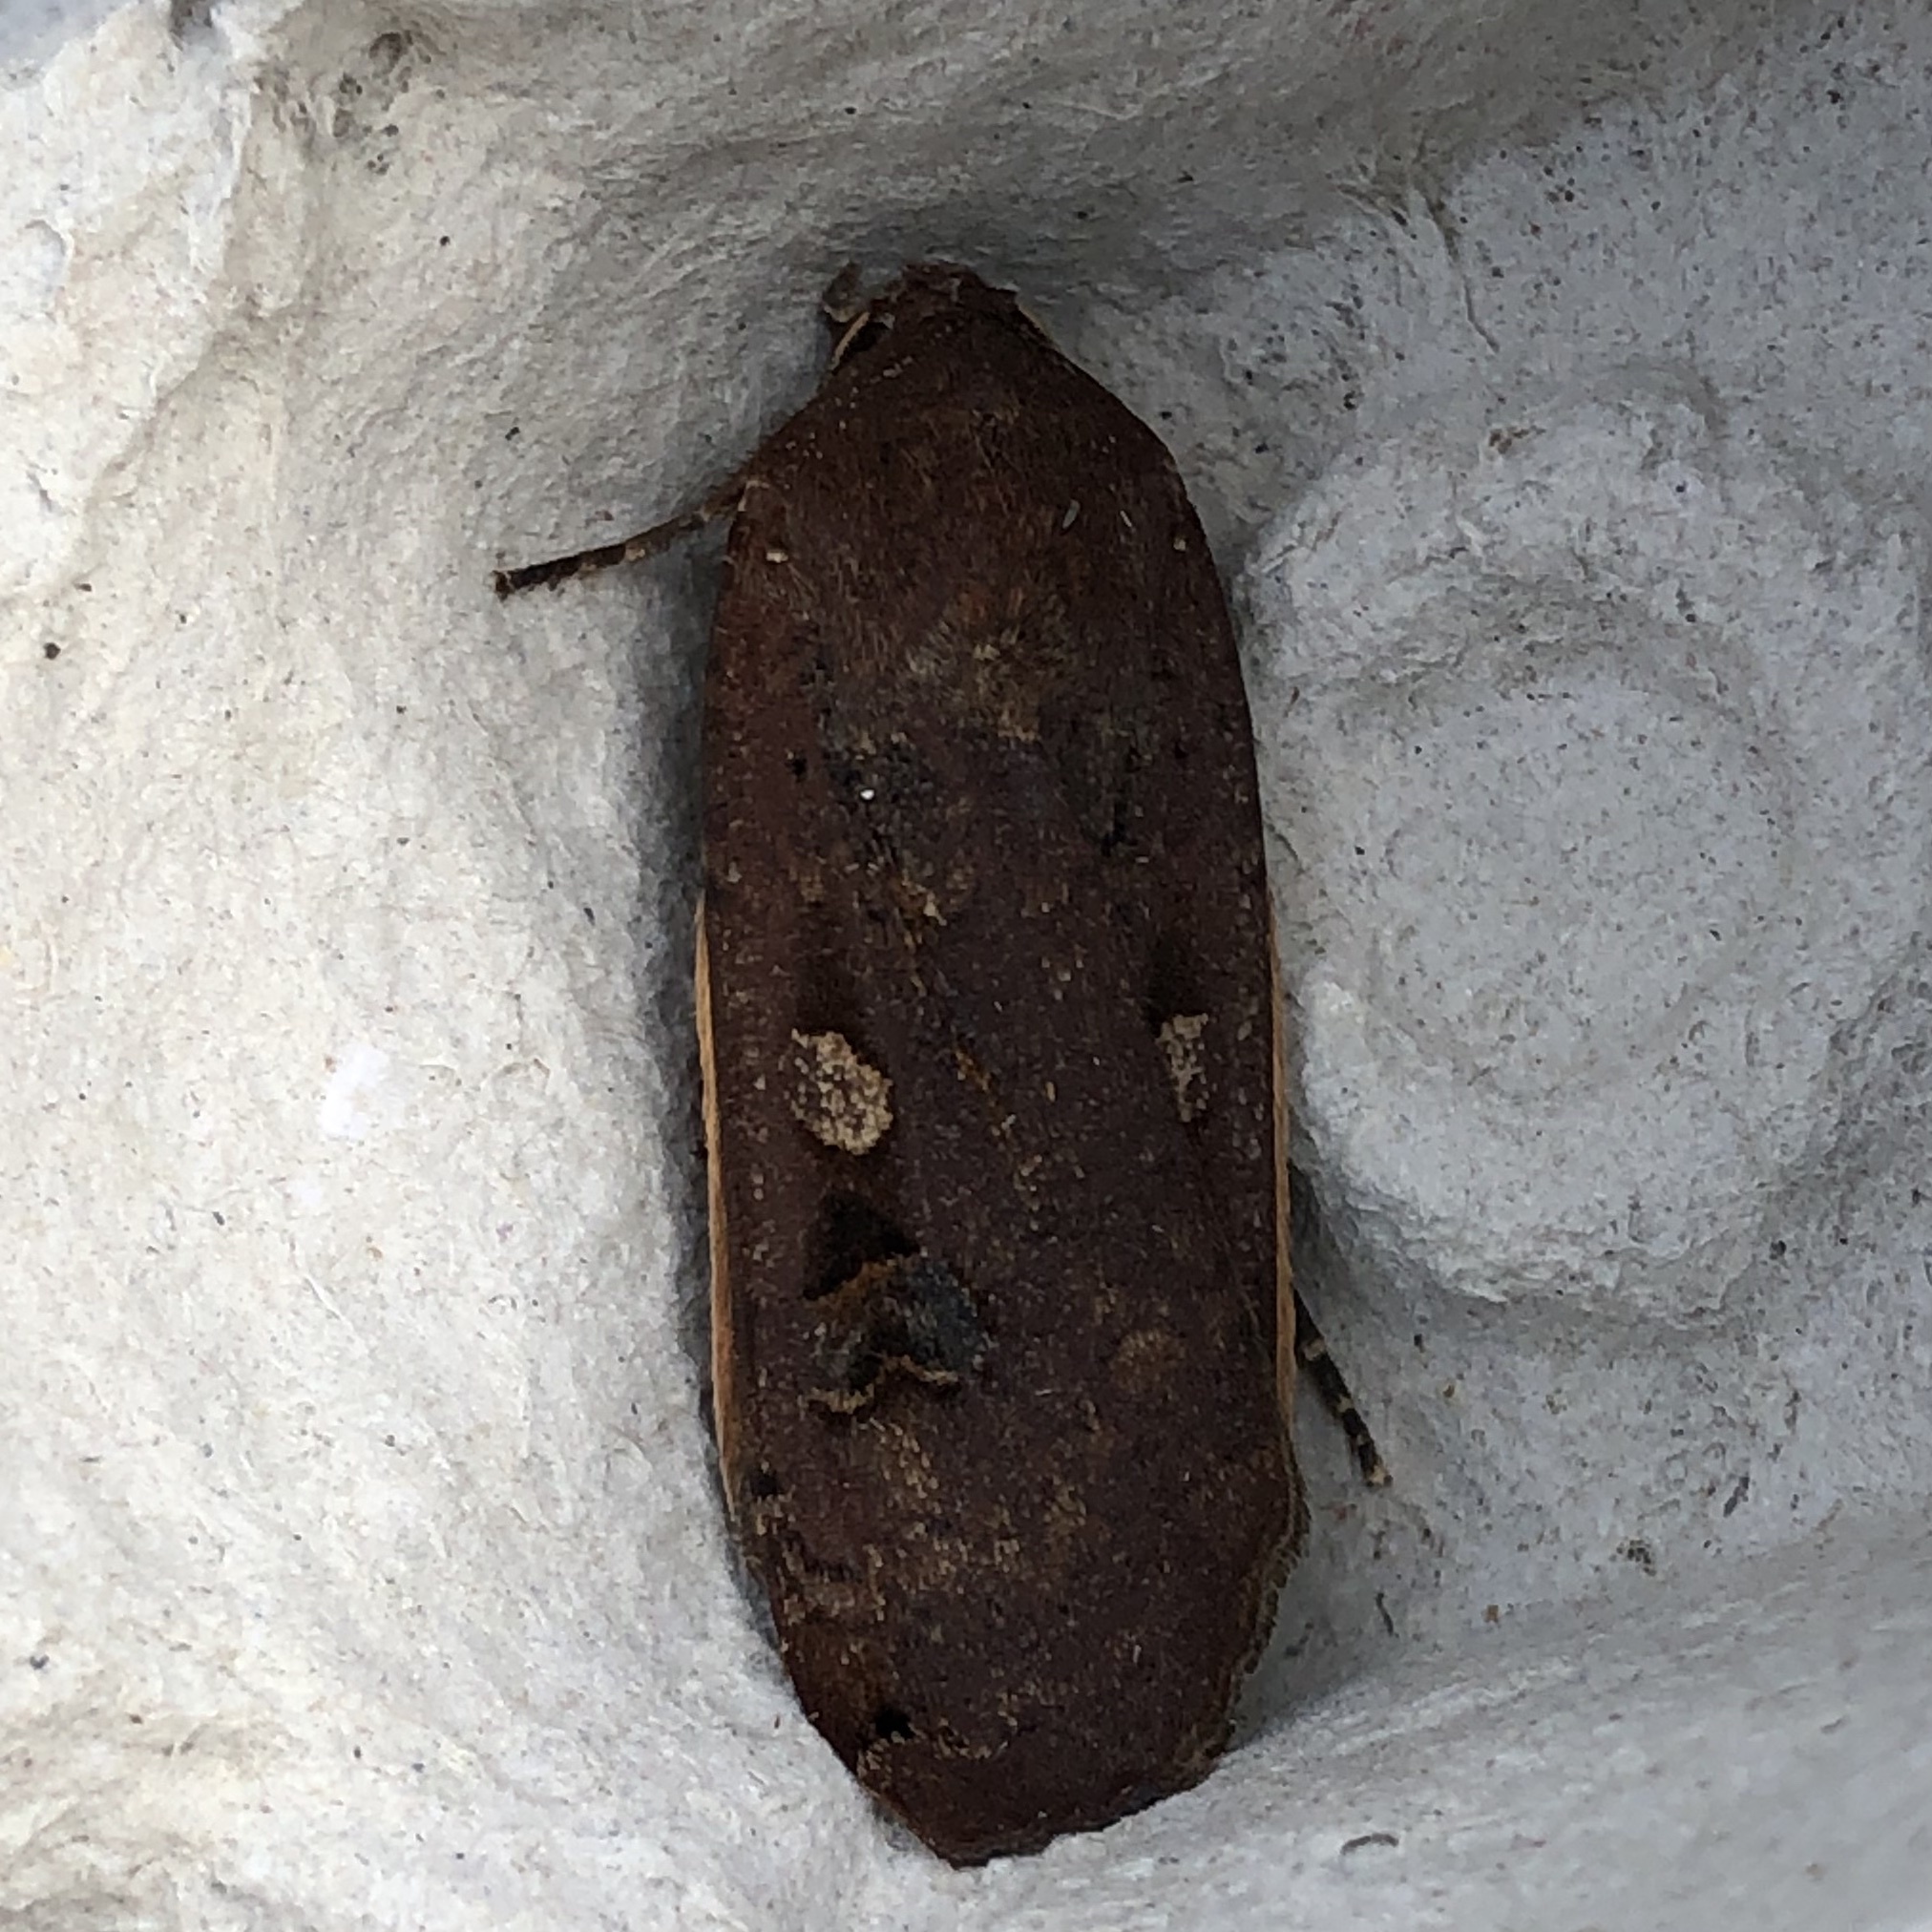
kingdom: Animalia
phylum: Arthropoda
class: Insecta
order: Lepidoptera
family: Noctuidae
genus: Noctua
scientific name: Noctua pronuba
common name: Large yellow underwing
